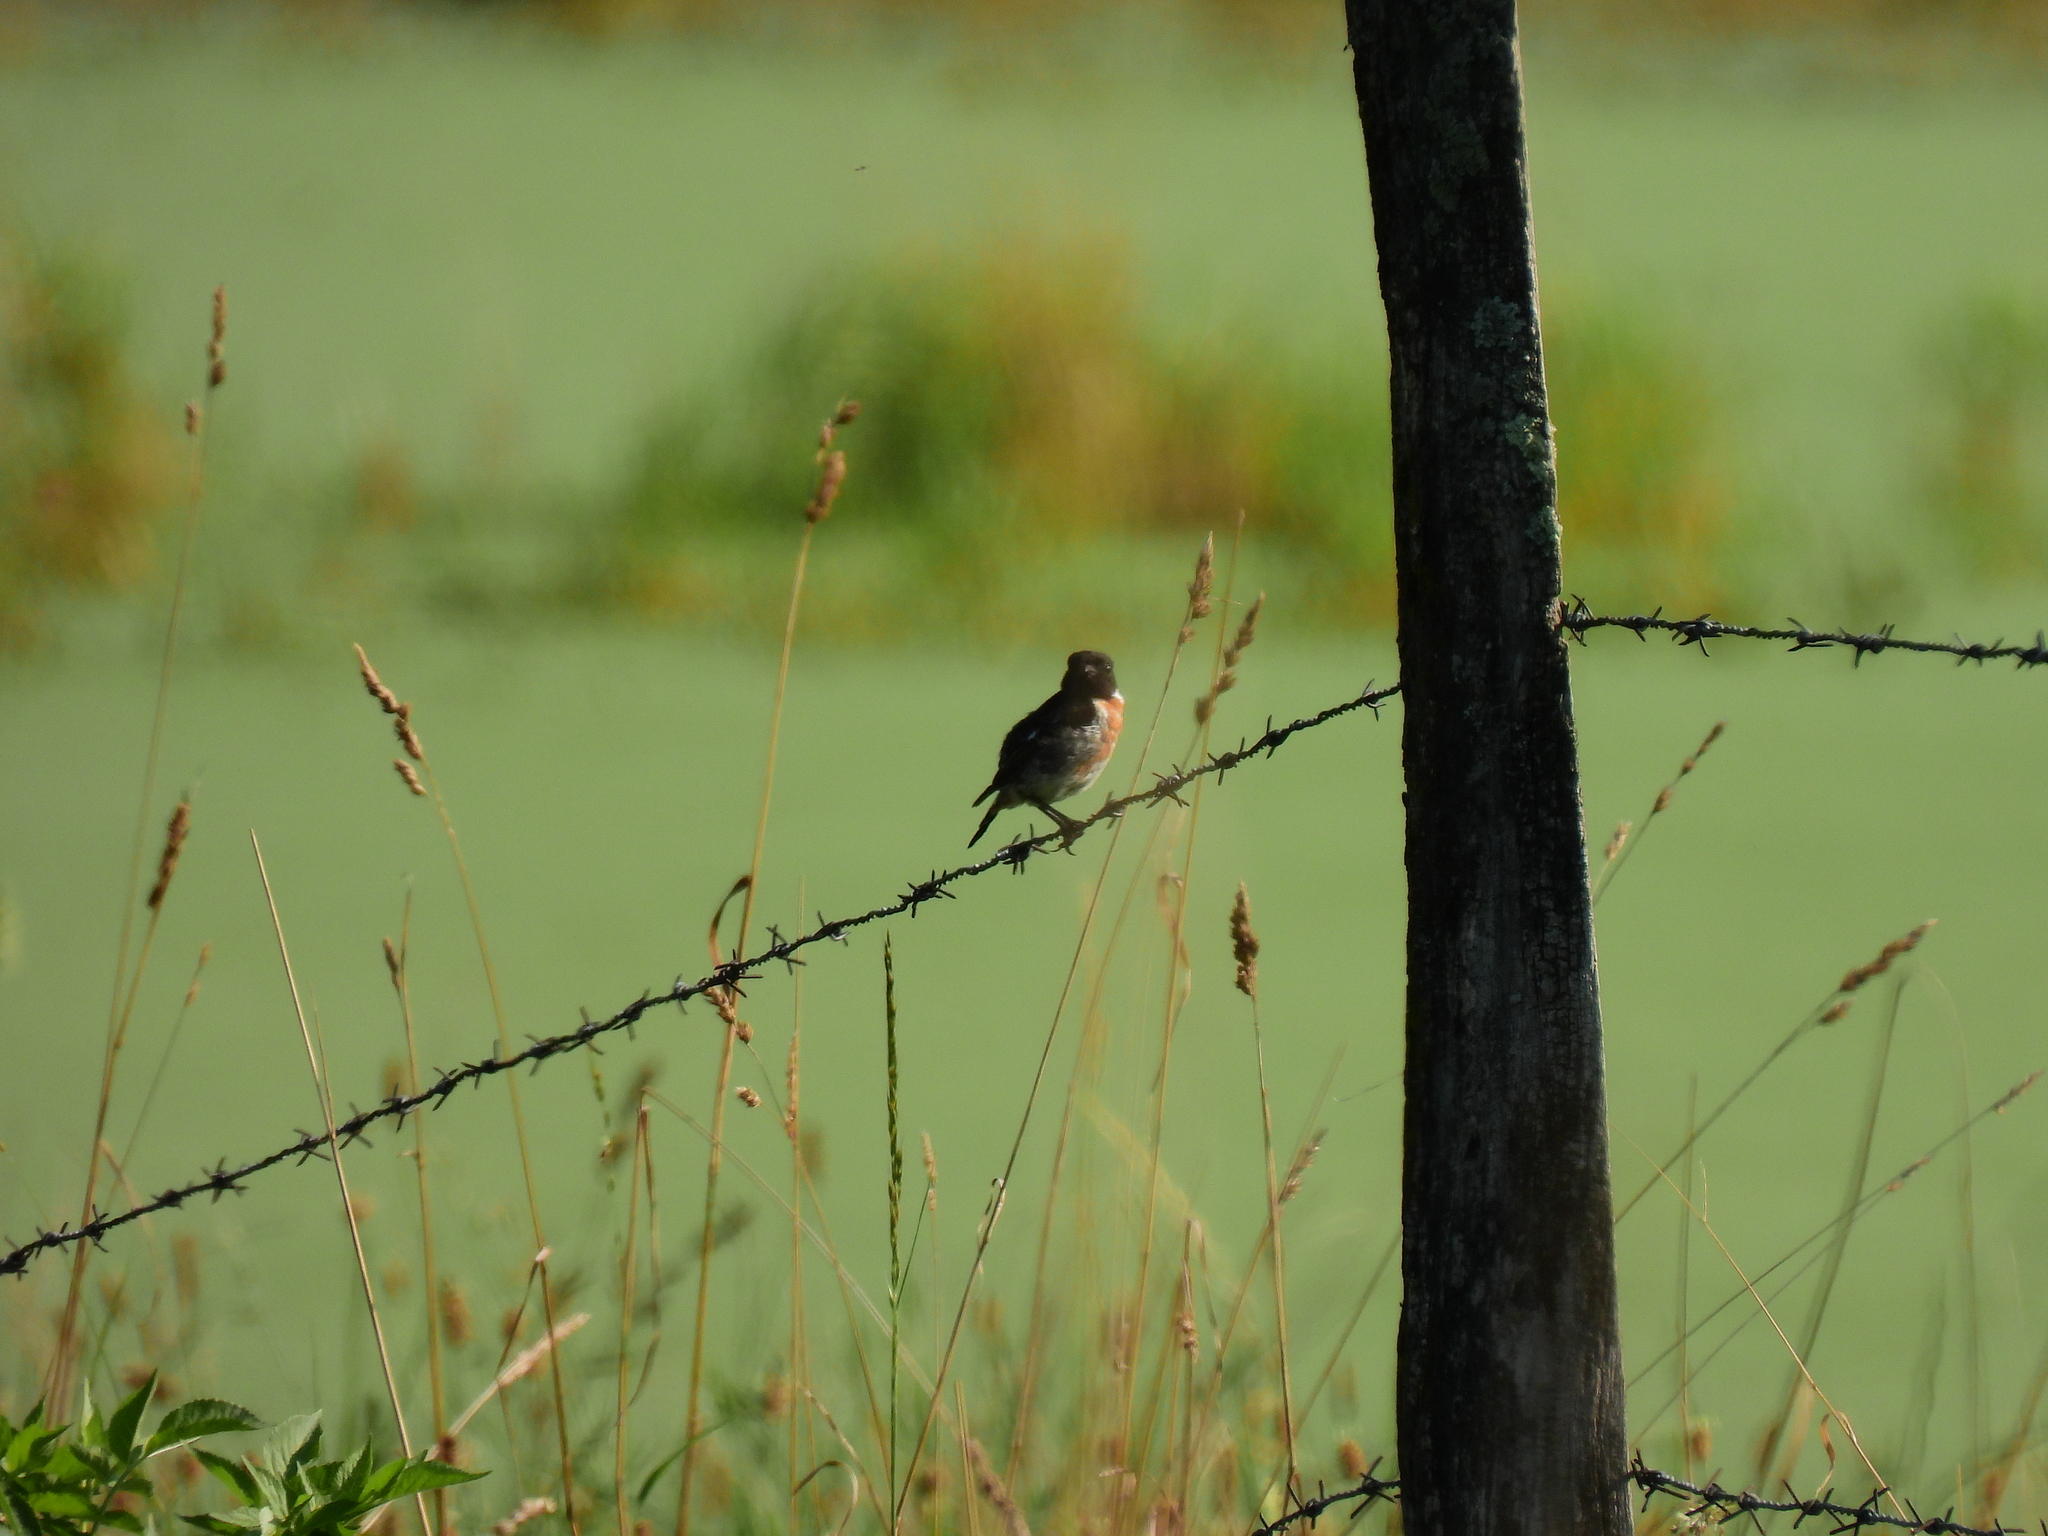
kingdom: Animalia
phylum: Chordata
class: Aves
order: Passeriformes
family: Muscicapidae
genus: Saxicola
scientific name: Saxicola rubicola
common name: European stonechat
